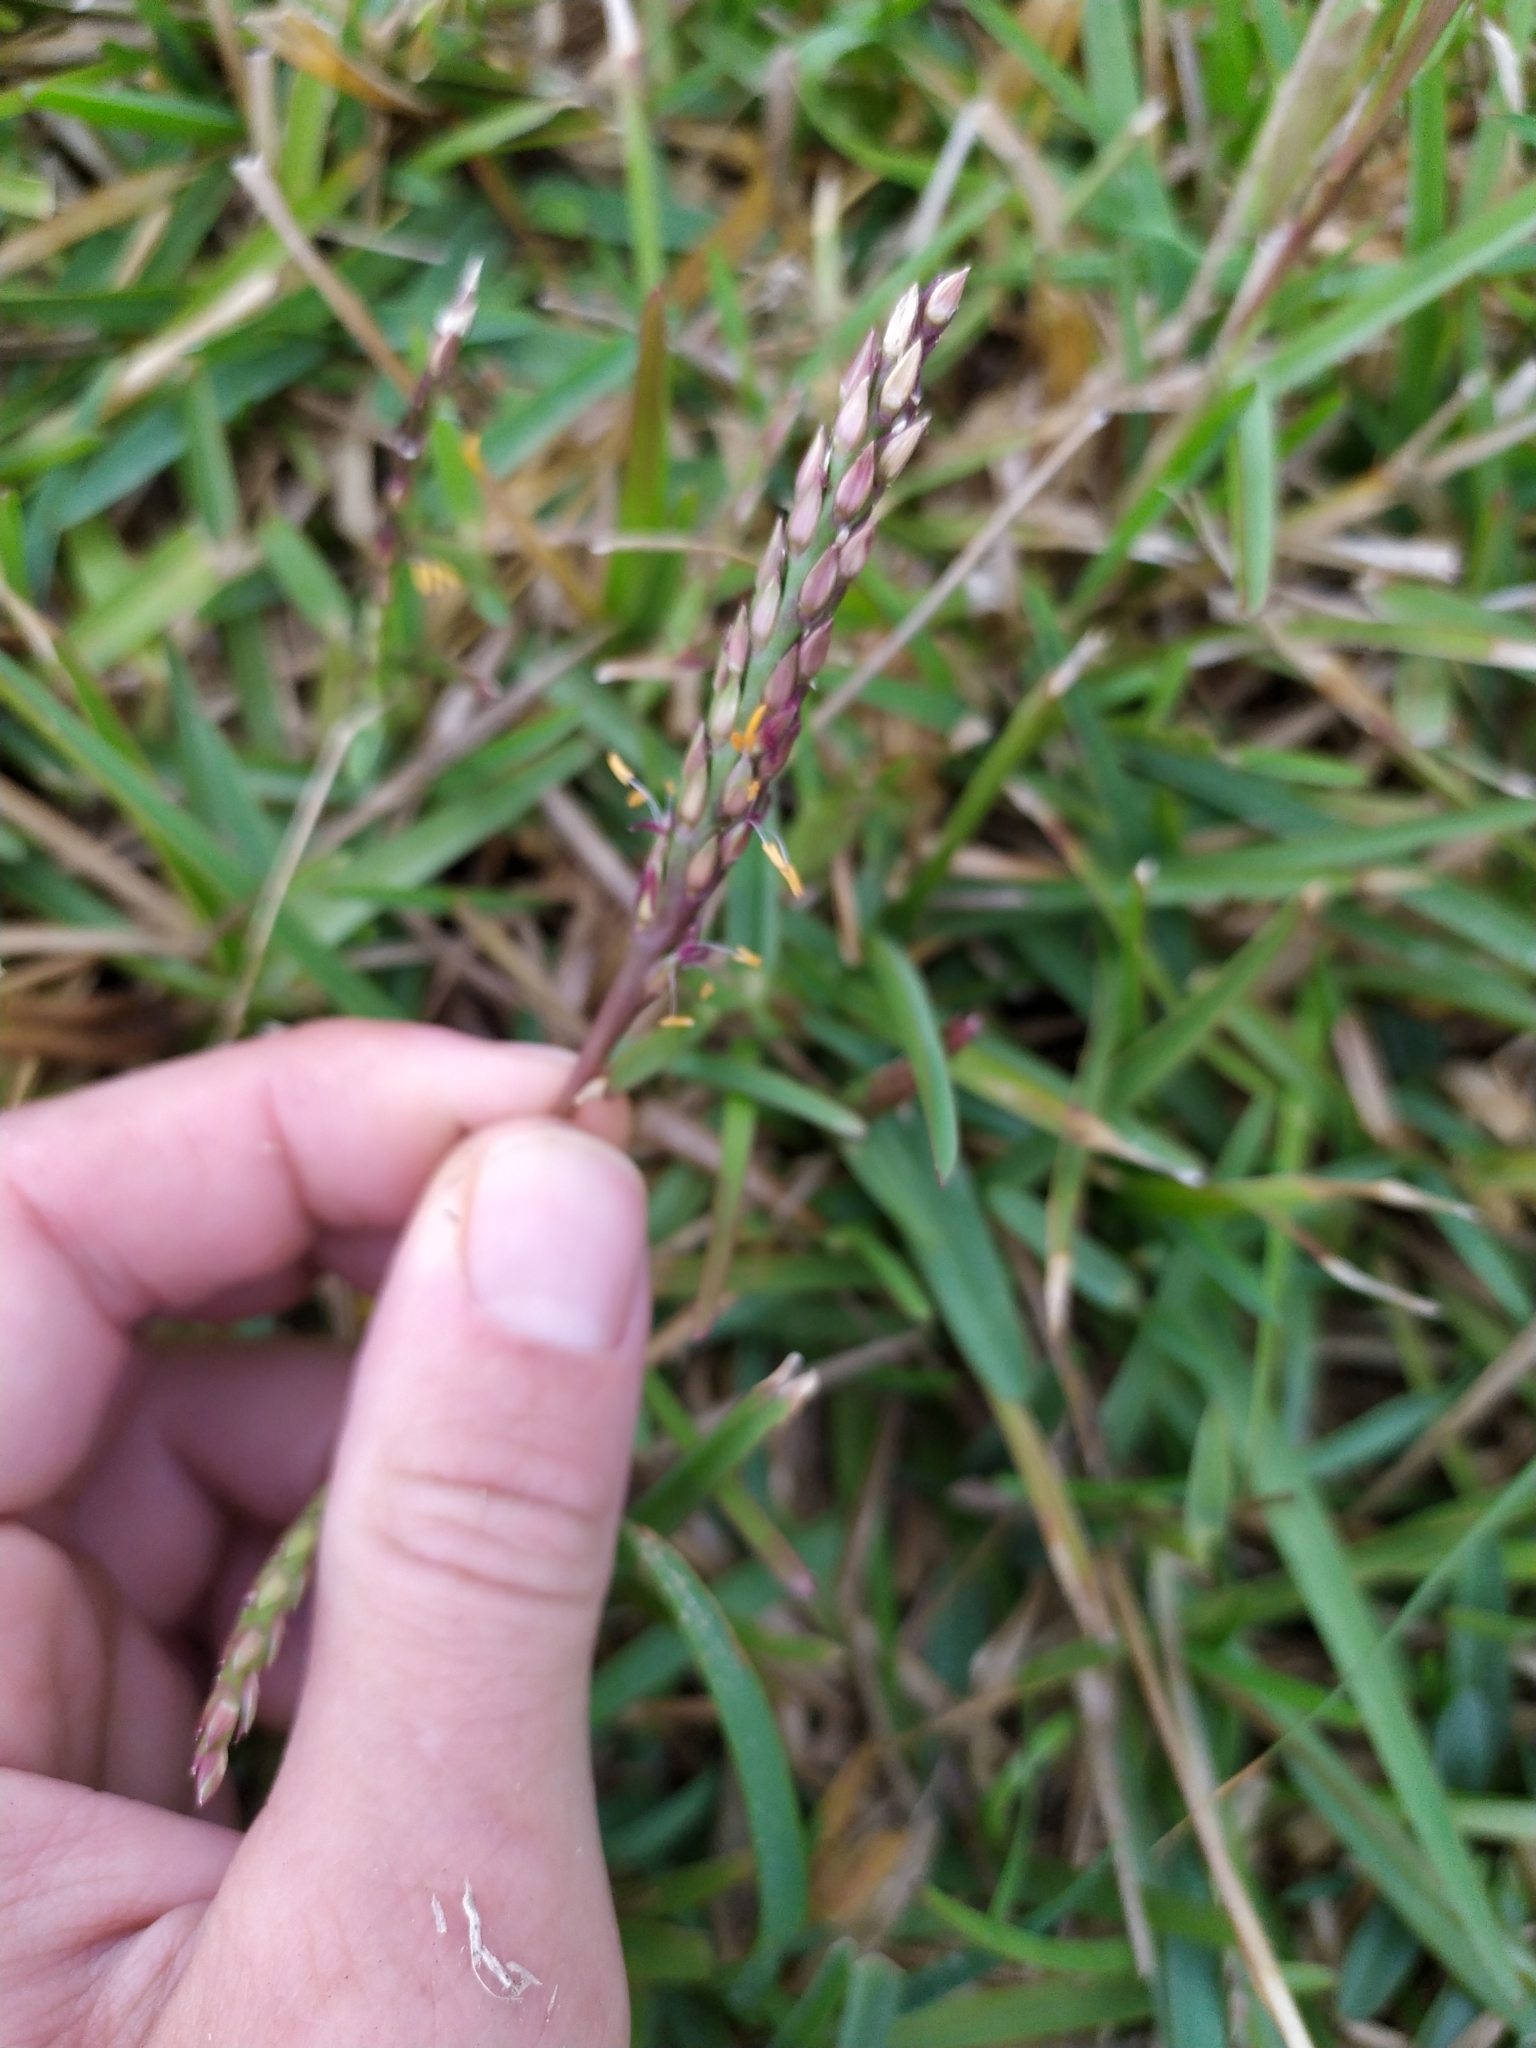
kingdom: Plantae
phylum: Tracheophyta
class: Liliopsida
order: Poales
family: Poaceae
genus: Stenotaphrum
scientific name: Stenotaphrum secundatum
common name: St. augustine grass
